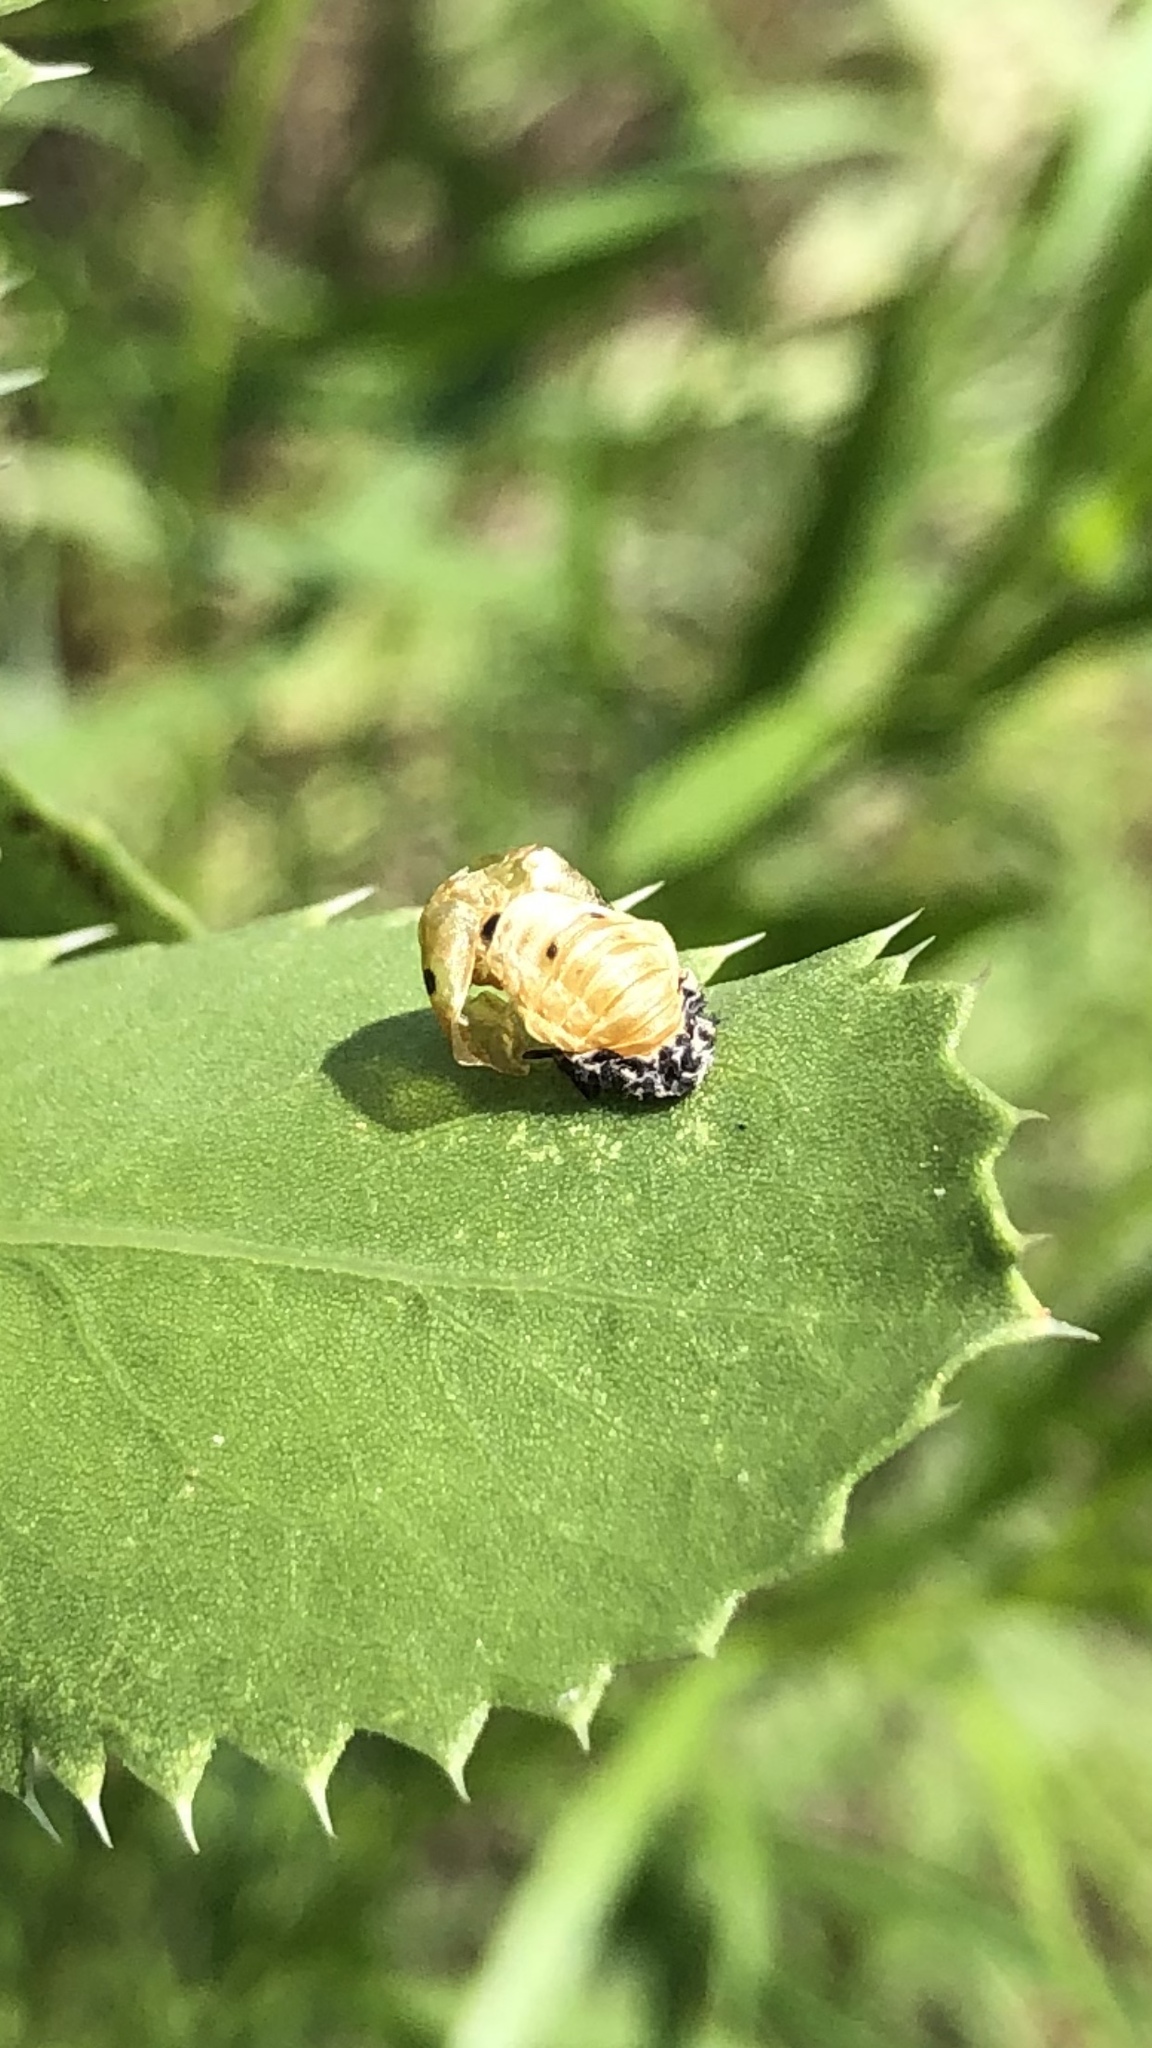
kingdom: Animalia
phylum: Arthropoda
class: Insecta
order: Coleoptera
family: Coccinellidae
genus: Coccinella
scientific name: Coccinella septempunctata
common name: Sevenspotted lady beetle
